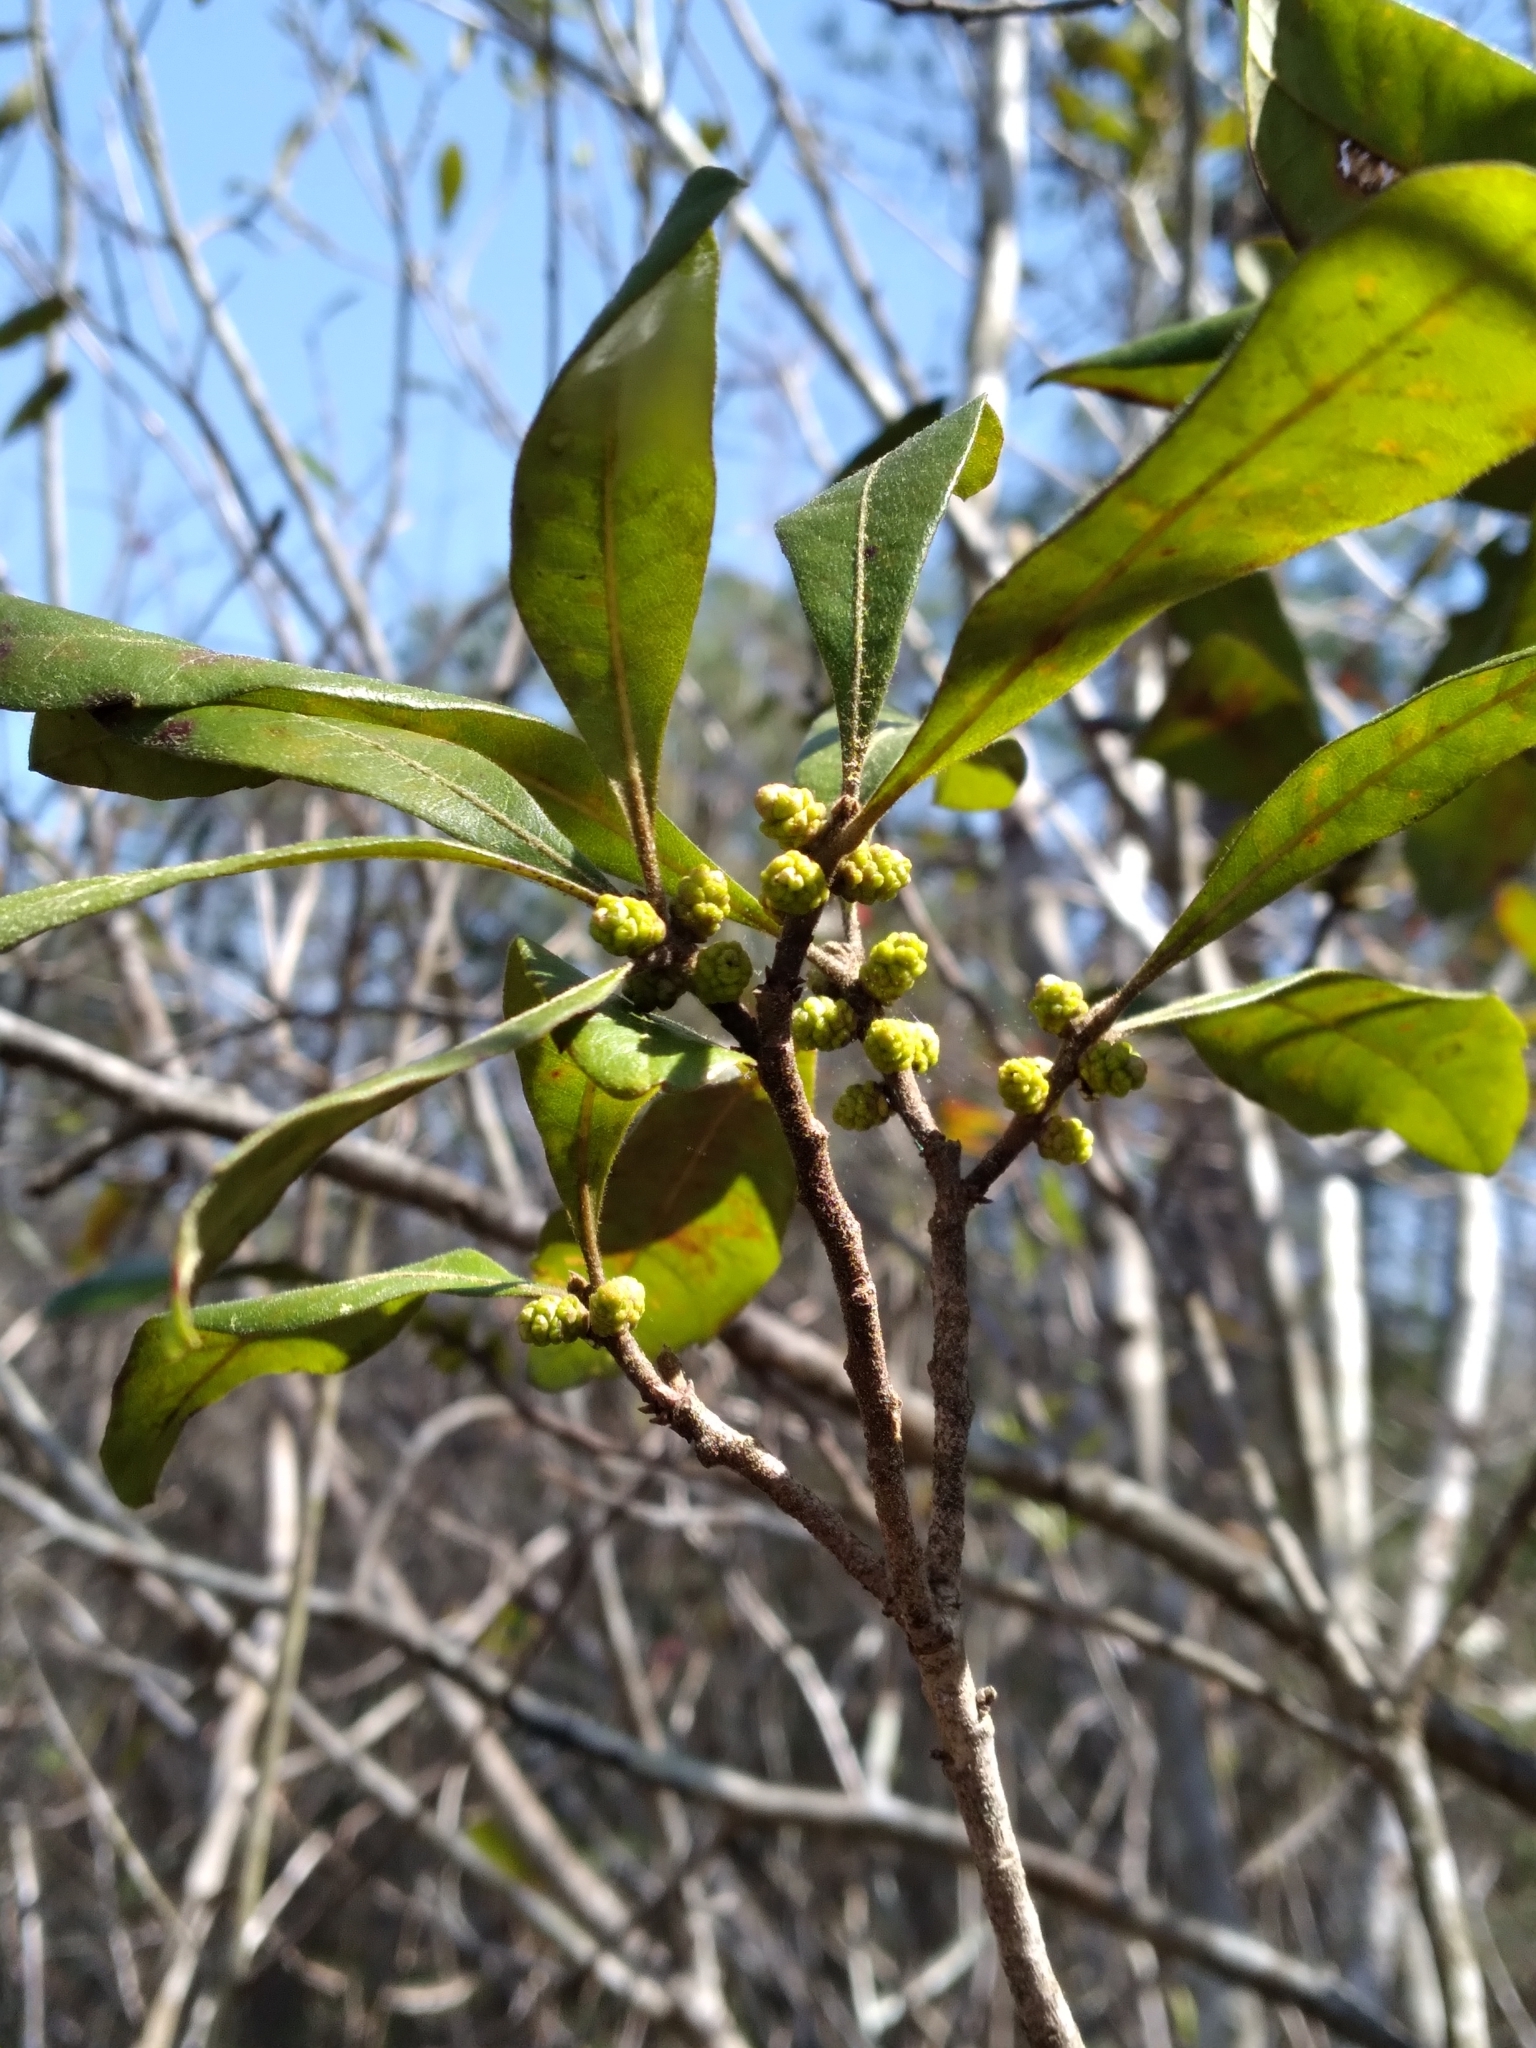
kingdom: Plantae
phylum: Tracheophyta
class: Magnoliopsida
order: Fagales
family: Myricaceae
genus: Morella
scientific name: Morella caroliniensis
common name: Evergreen bayberry
